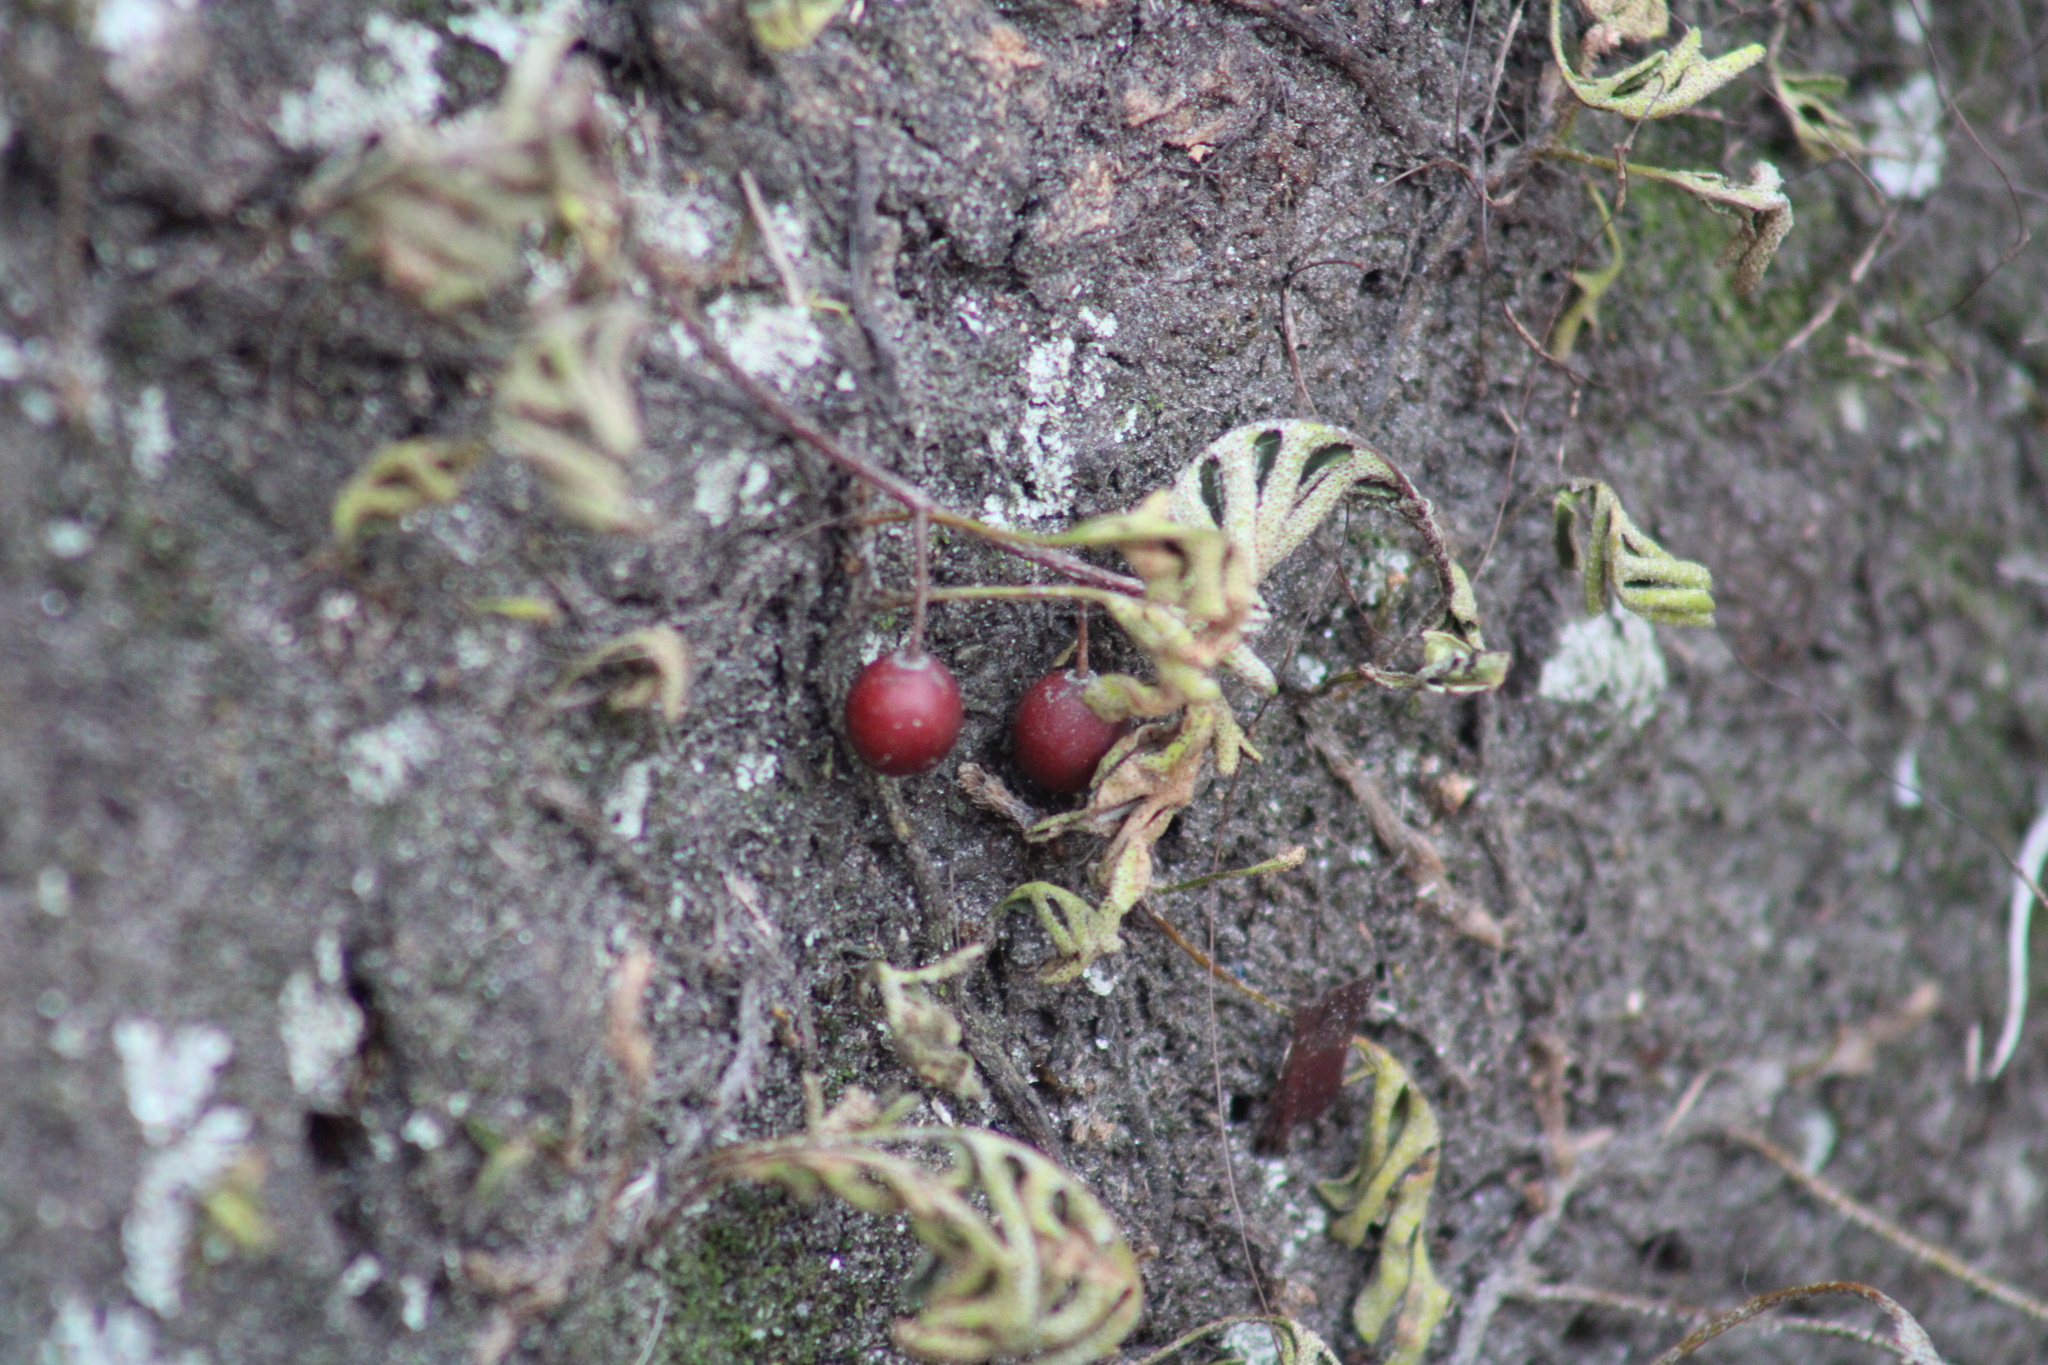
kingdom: Plantae
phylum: Tracheophyta
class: Polypodiopsida
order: Polypodiales
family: Polypodiaceae
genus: Pleopeltis
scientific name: Pleopeltis michauxiana
